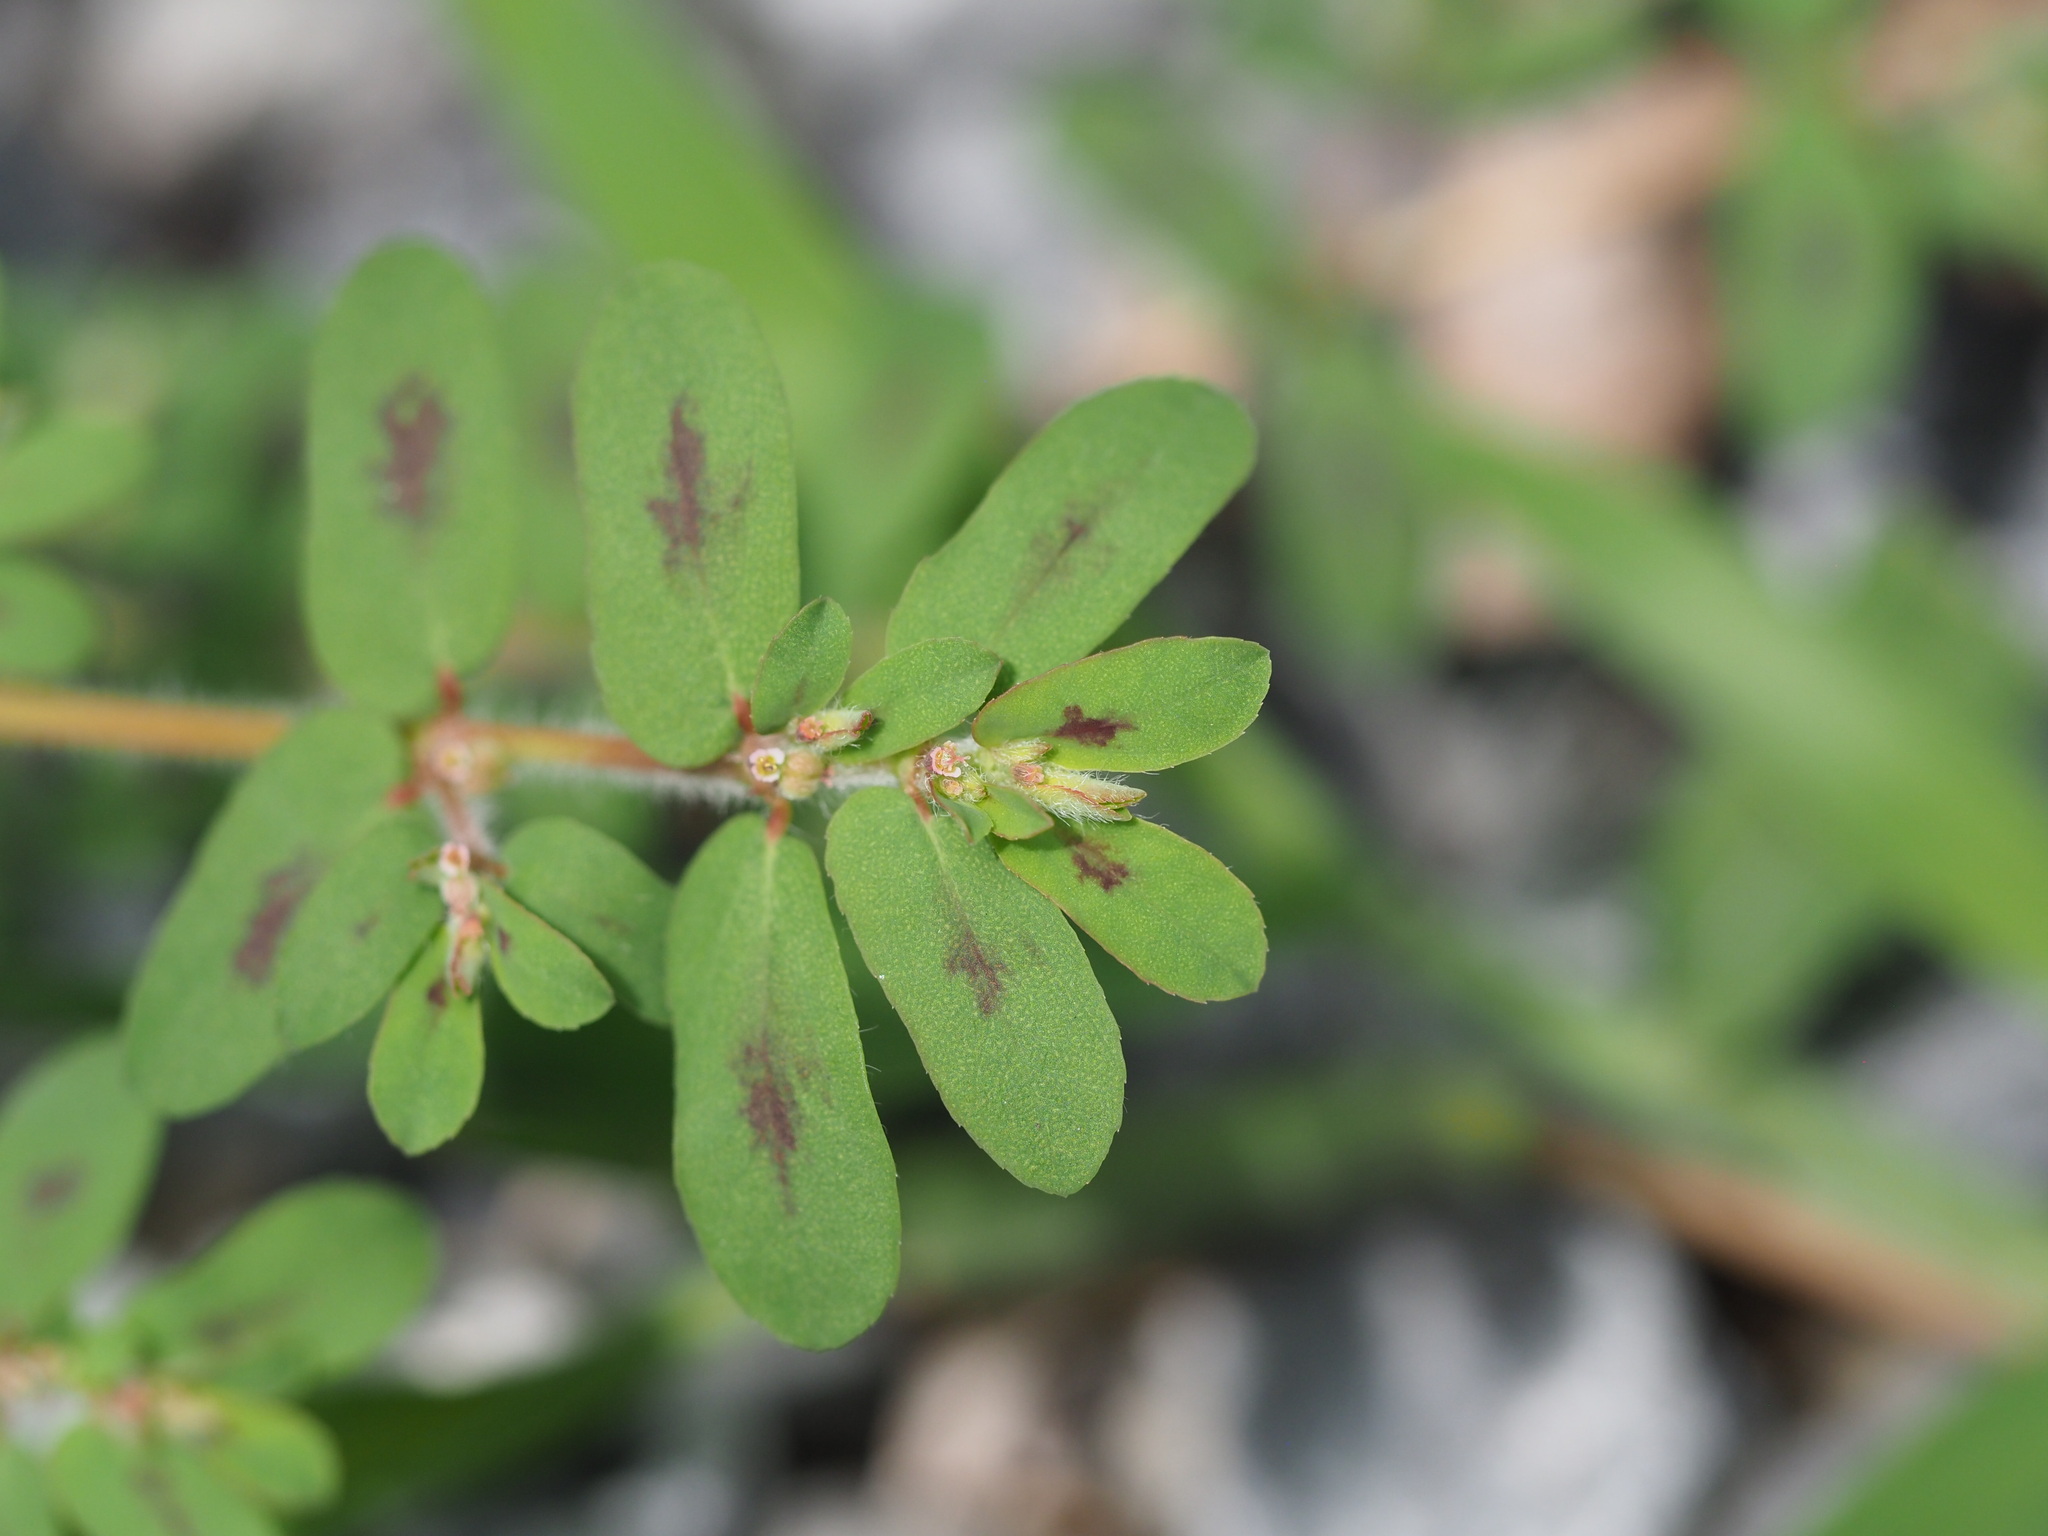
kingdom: Plantae
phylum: Tracheophyta
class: Magnoliopsida
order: Malpighiales
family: Euphorbiaceae
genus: Euphorbia
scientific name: Euphorbia maculata
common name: Spotted spurge
